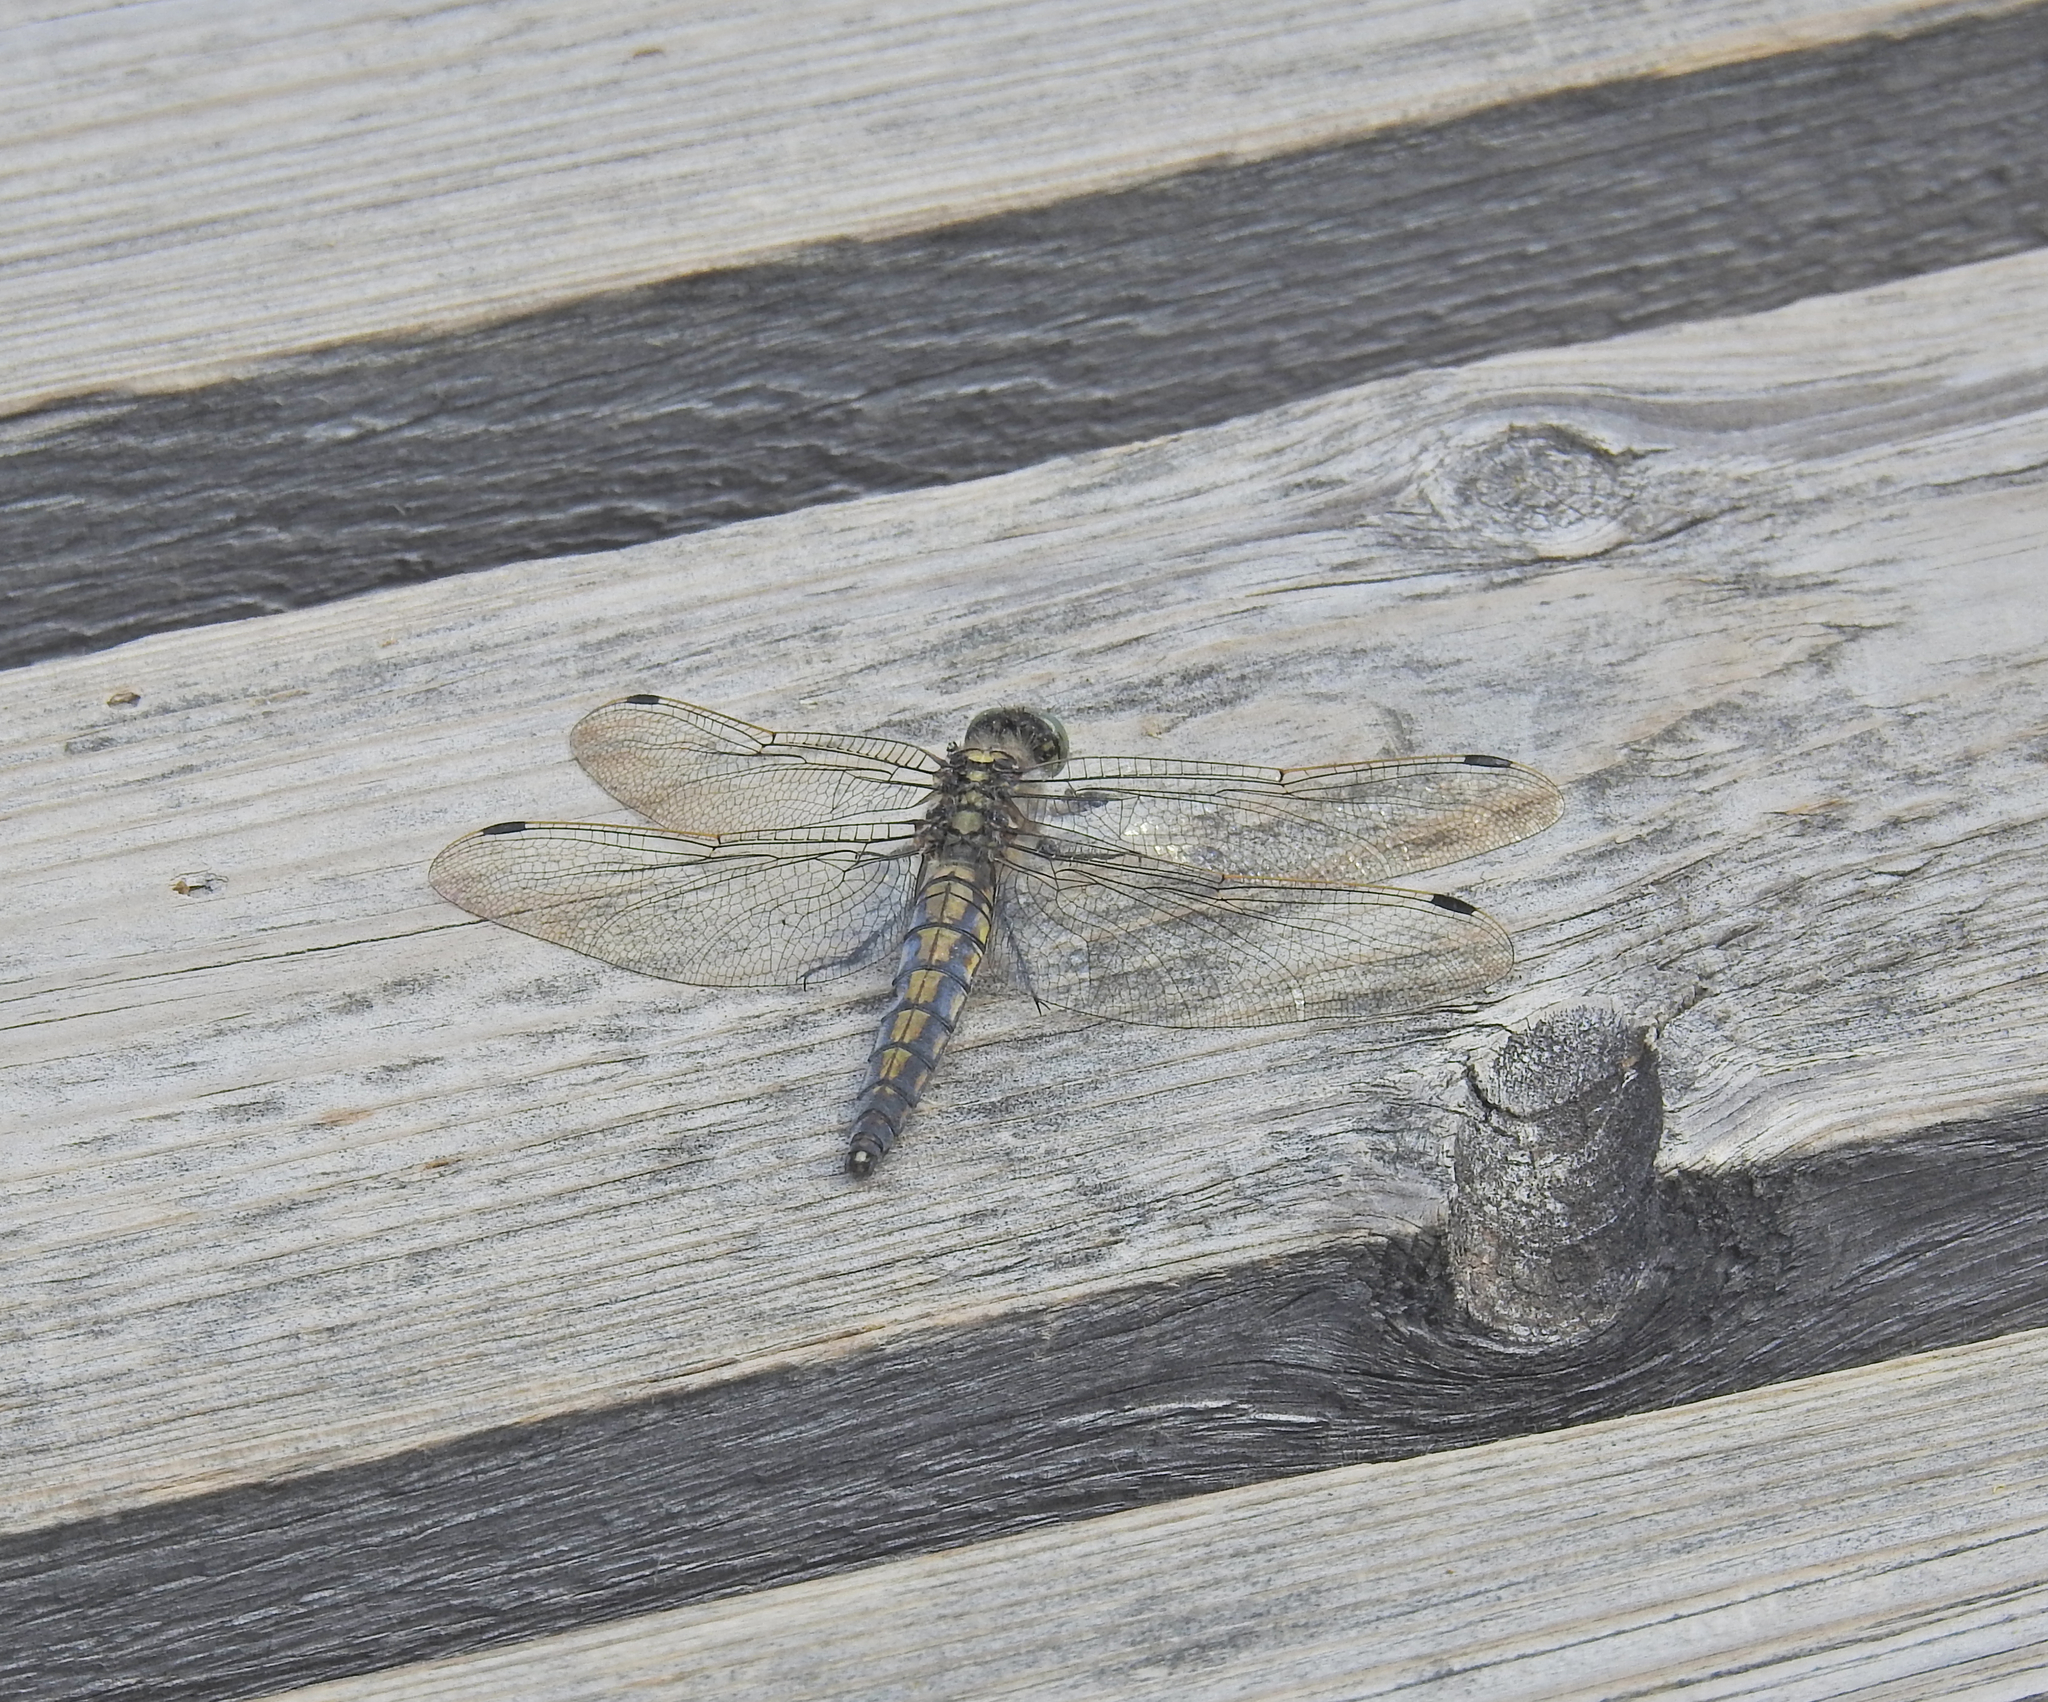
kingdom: Animalia
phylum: Arthropoda
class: Insecta
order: Odonata
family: Libellulidae
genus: Orthetrum
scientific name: Orthetrum cancellatum
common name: Black-tailed skimmer
